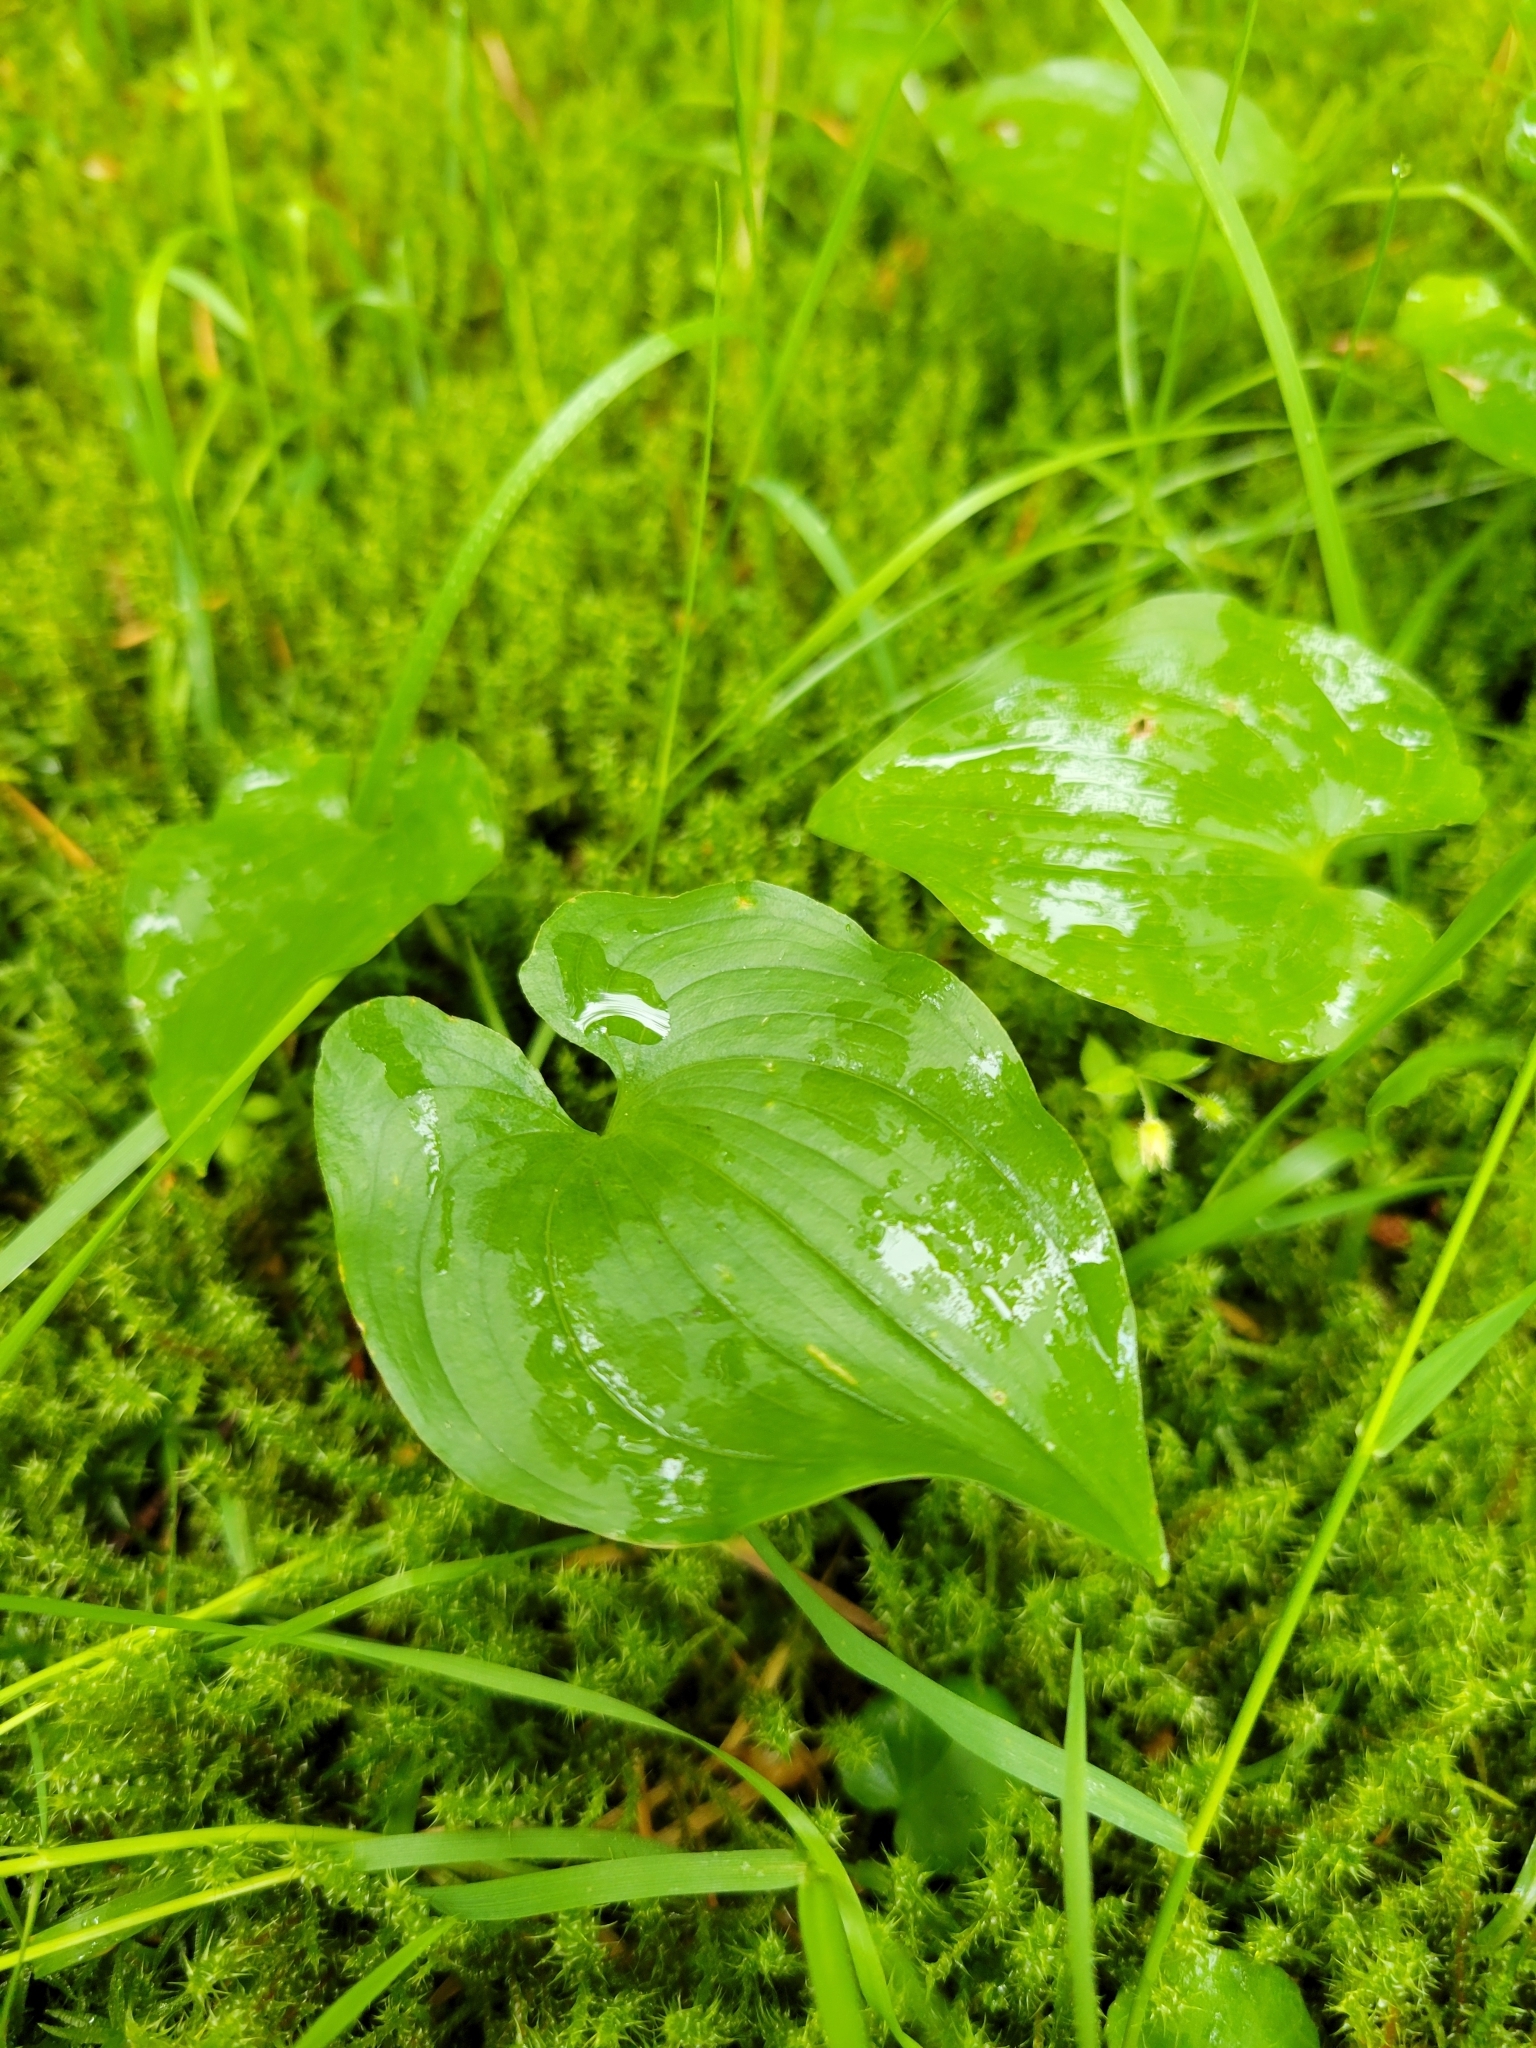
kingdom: Plantae
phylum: Tracheophyta
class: Liliopsida
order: Asparagales
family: Asparagaceae
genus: Maianthemum
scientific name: Maianthemum dilatatum
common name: False lily-of-the-valley
